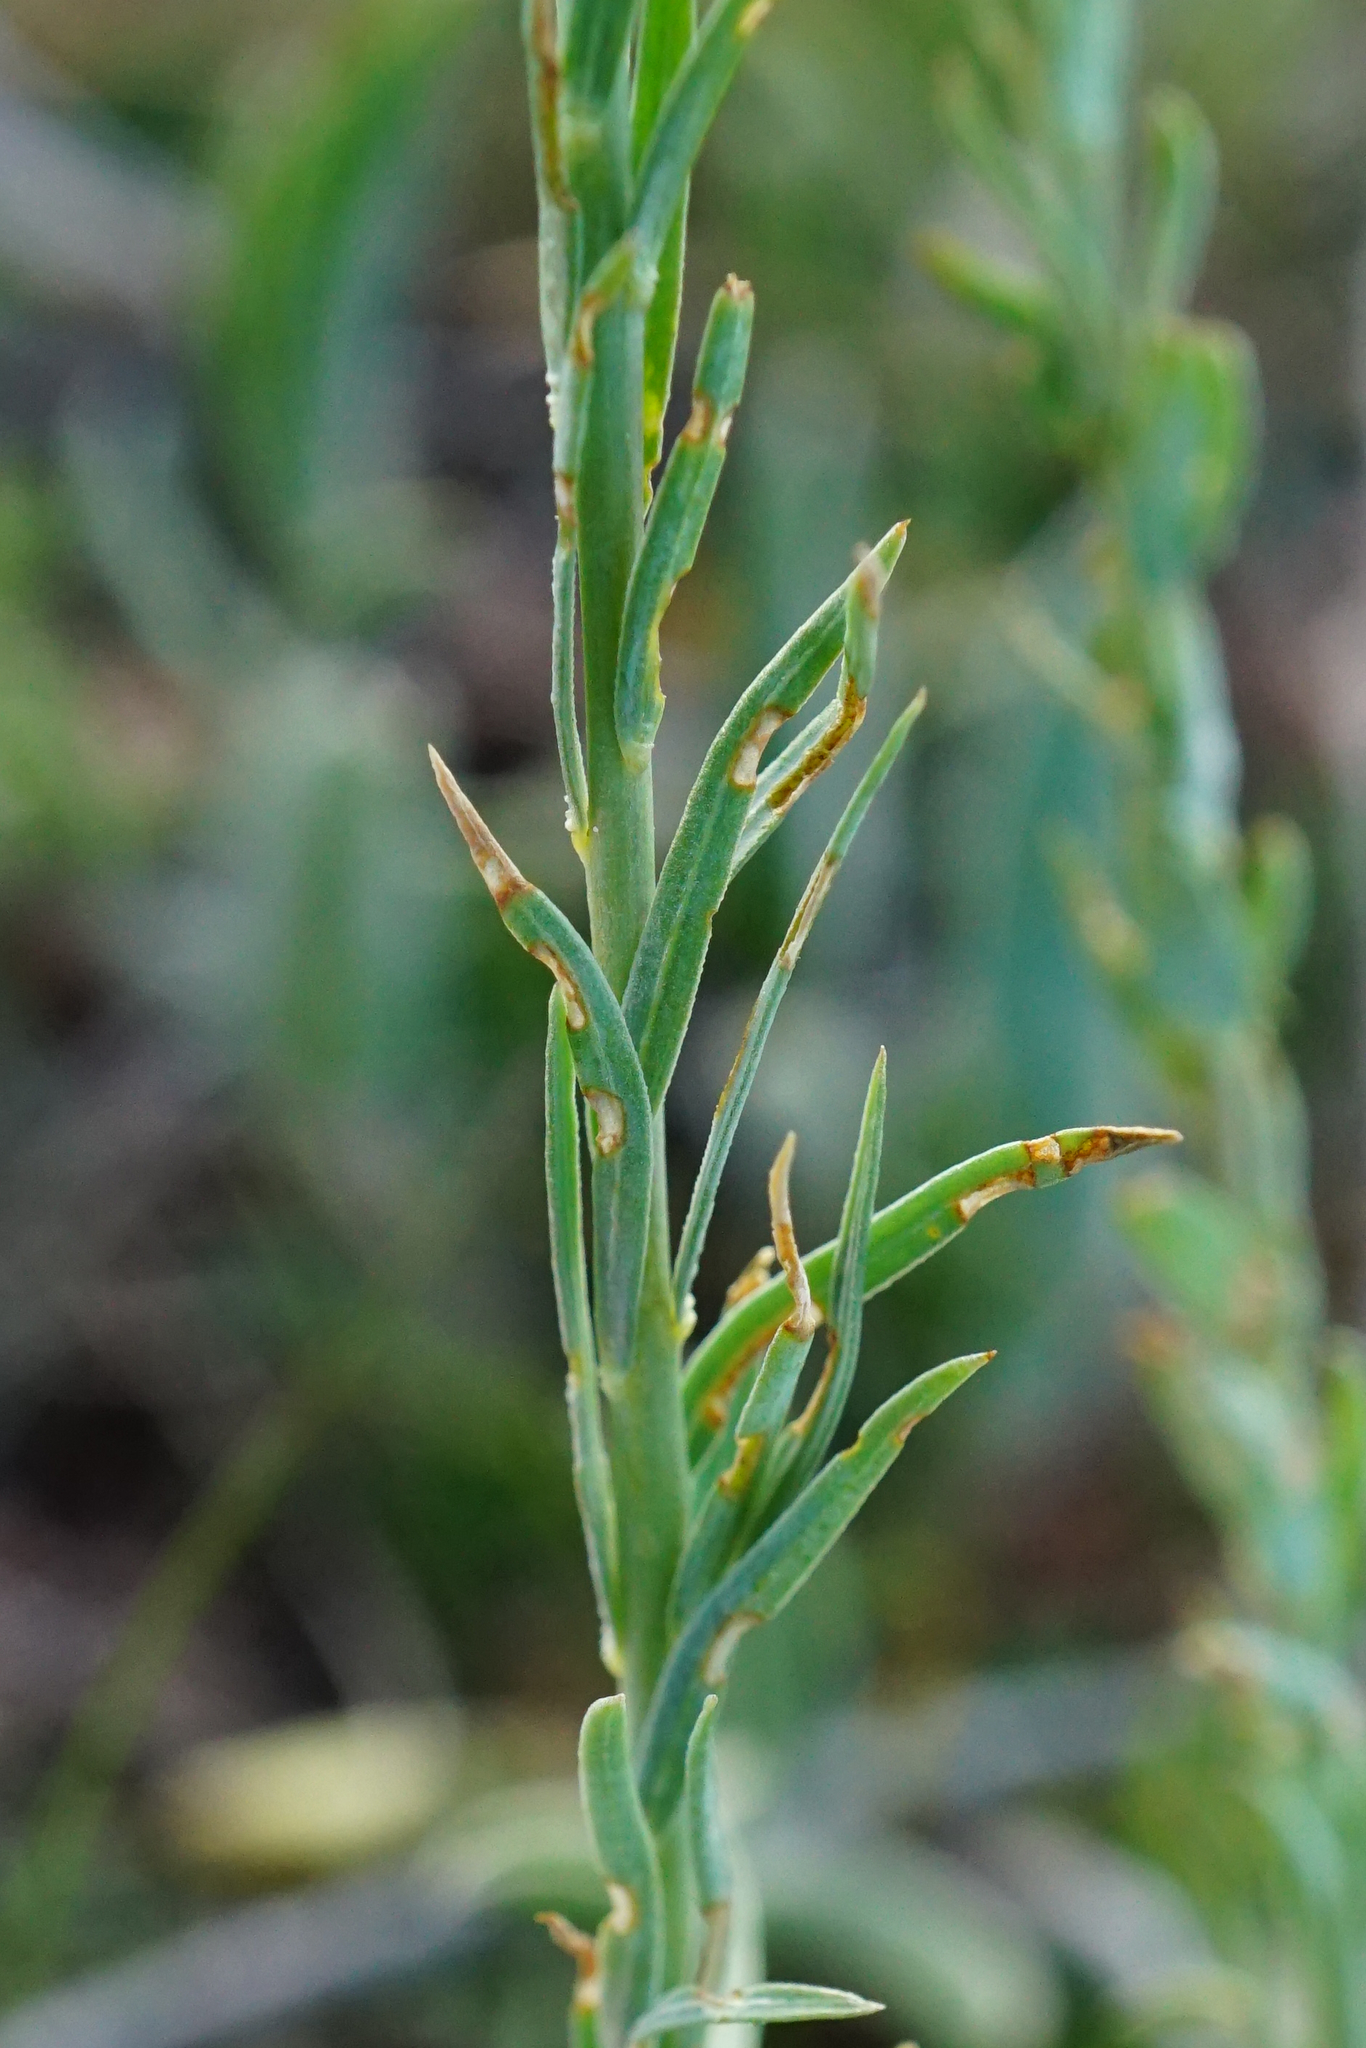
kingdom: Plantae
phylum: Tracheophyta
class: Magnoliopsida
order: Malpighiales
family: Linaceae
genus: Linum
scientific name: Linum austriacum
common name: Austrian flax
